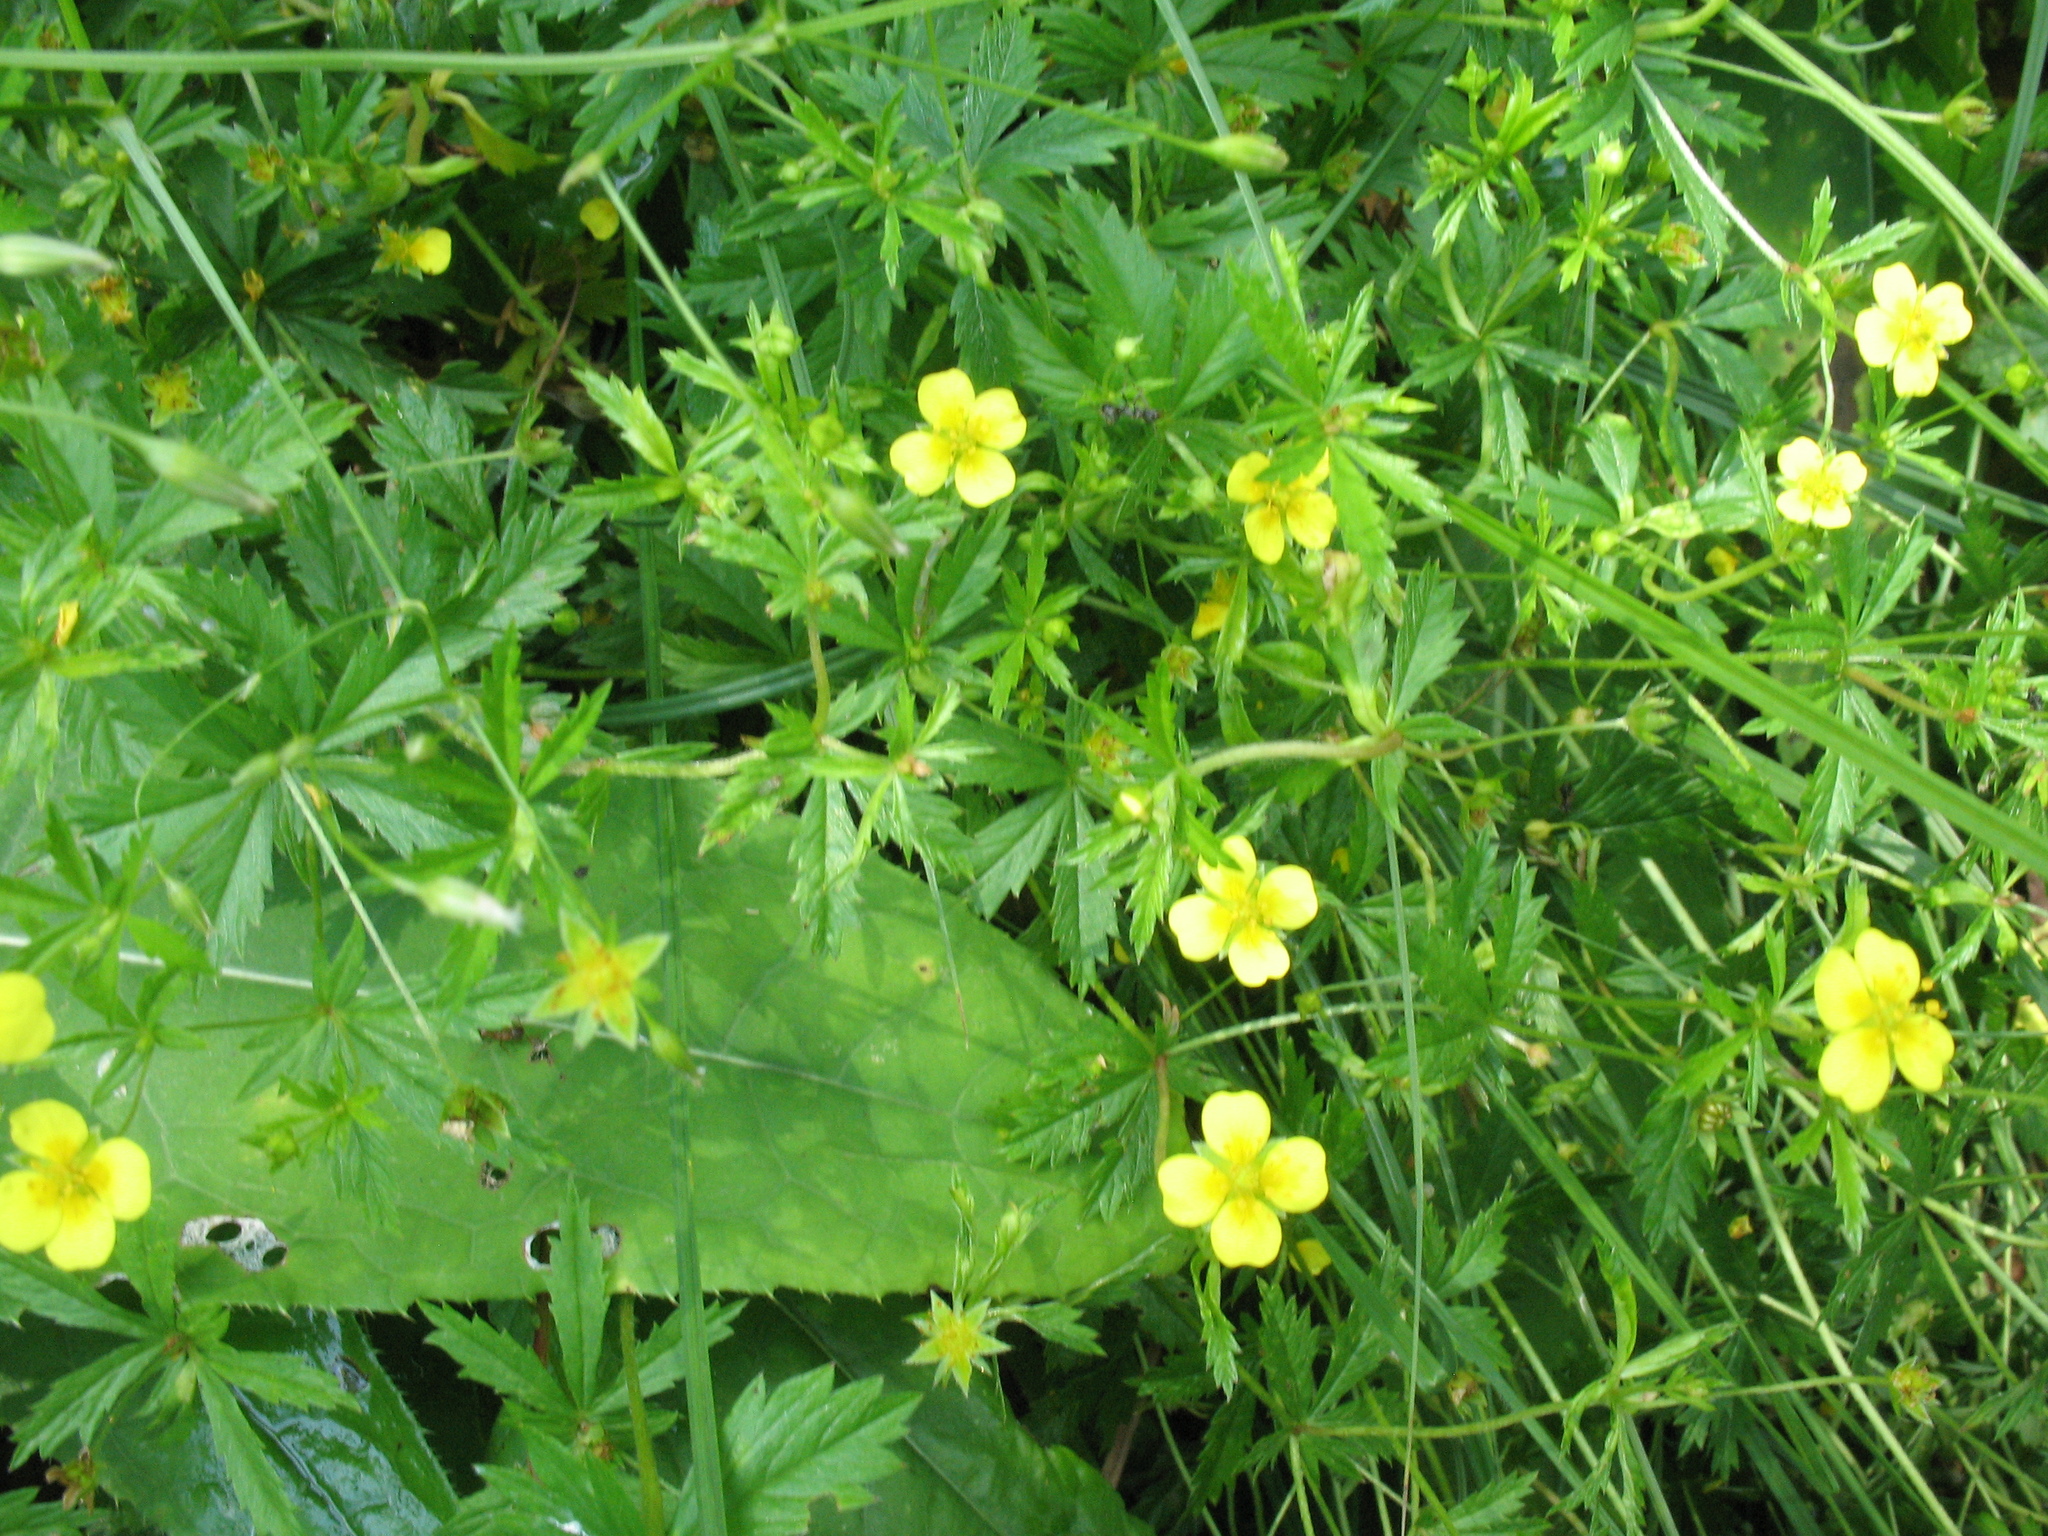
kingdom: Plantae
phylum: Tracheophyta
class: Magnoliopsida
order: Rosales
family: Rosaceae
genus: Potentilla
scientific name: Potentilla erecta
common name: Tormentil
